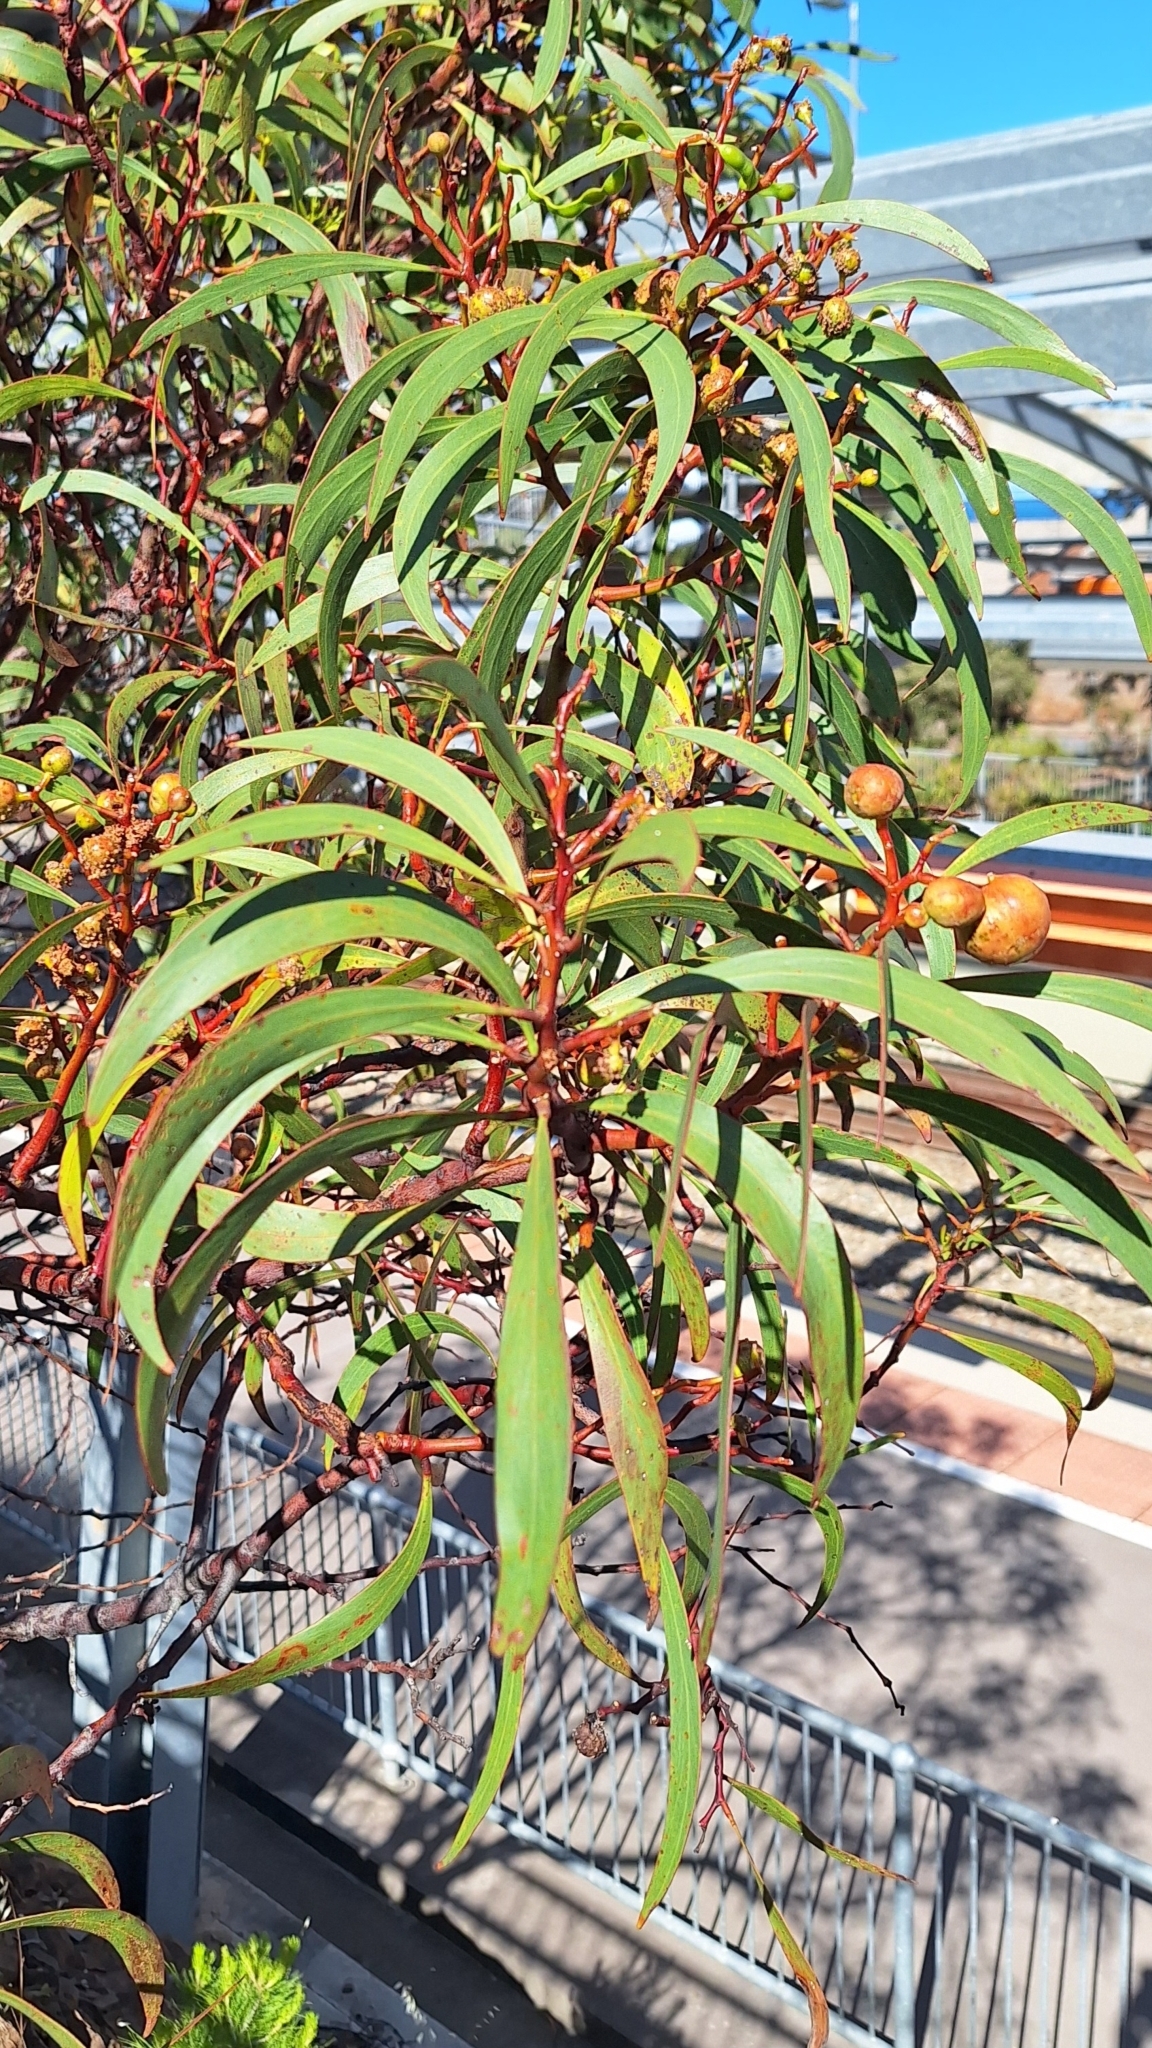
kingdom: Plantae
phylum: Tracheophyta
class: Magnoliopsida
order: Fabales
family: Fabaceae
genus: Acacia
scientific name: Acacia pycnantha
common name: Golden wattle
